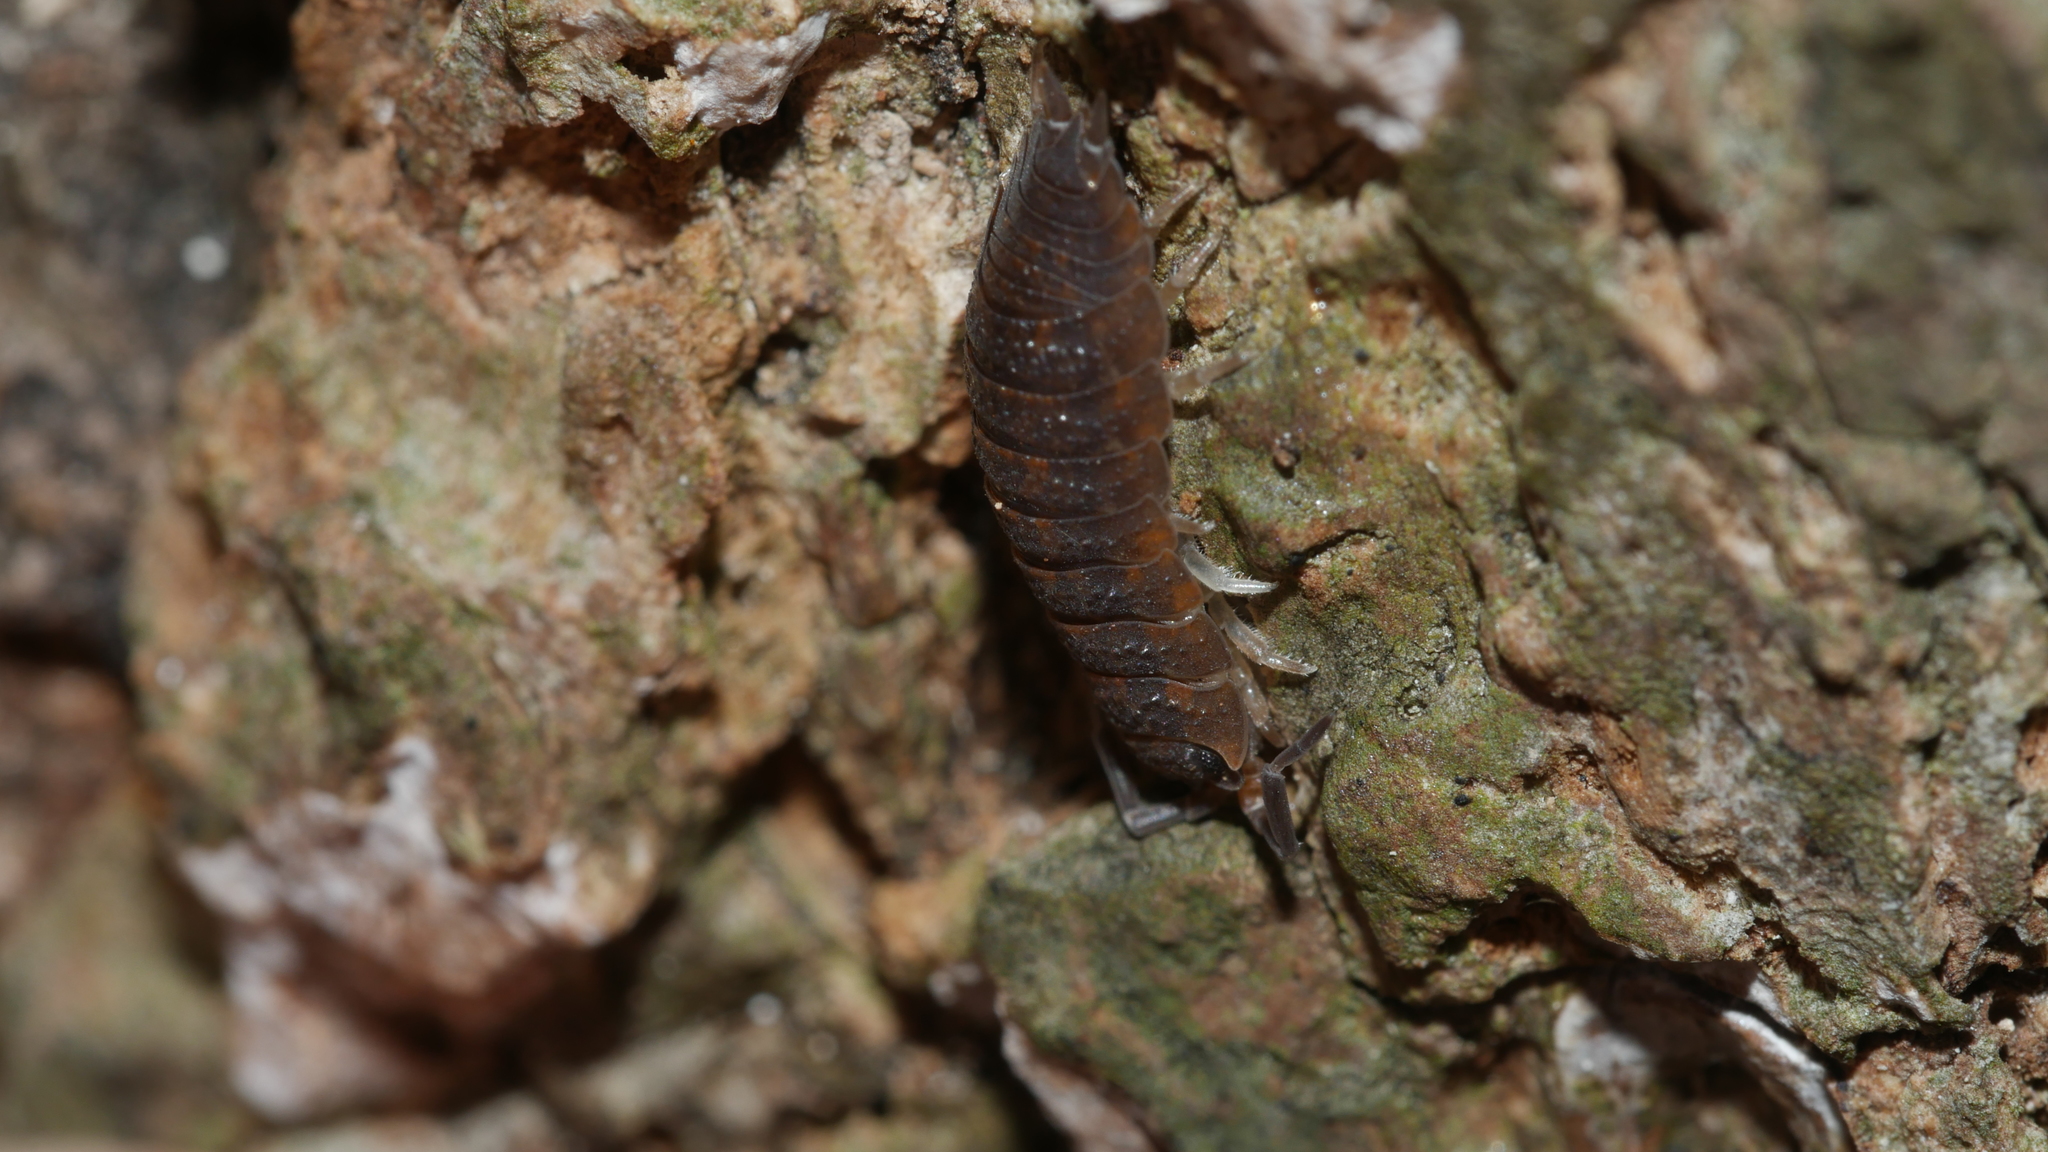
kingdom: Animalia
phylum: Arthropoda
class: Malacostraca
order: Isopoda
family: Porcellionidae
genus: Porcellio
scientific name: Porcellio scaber
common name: Common rough woodlouse
